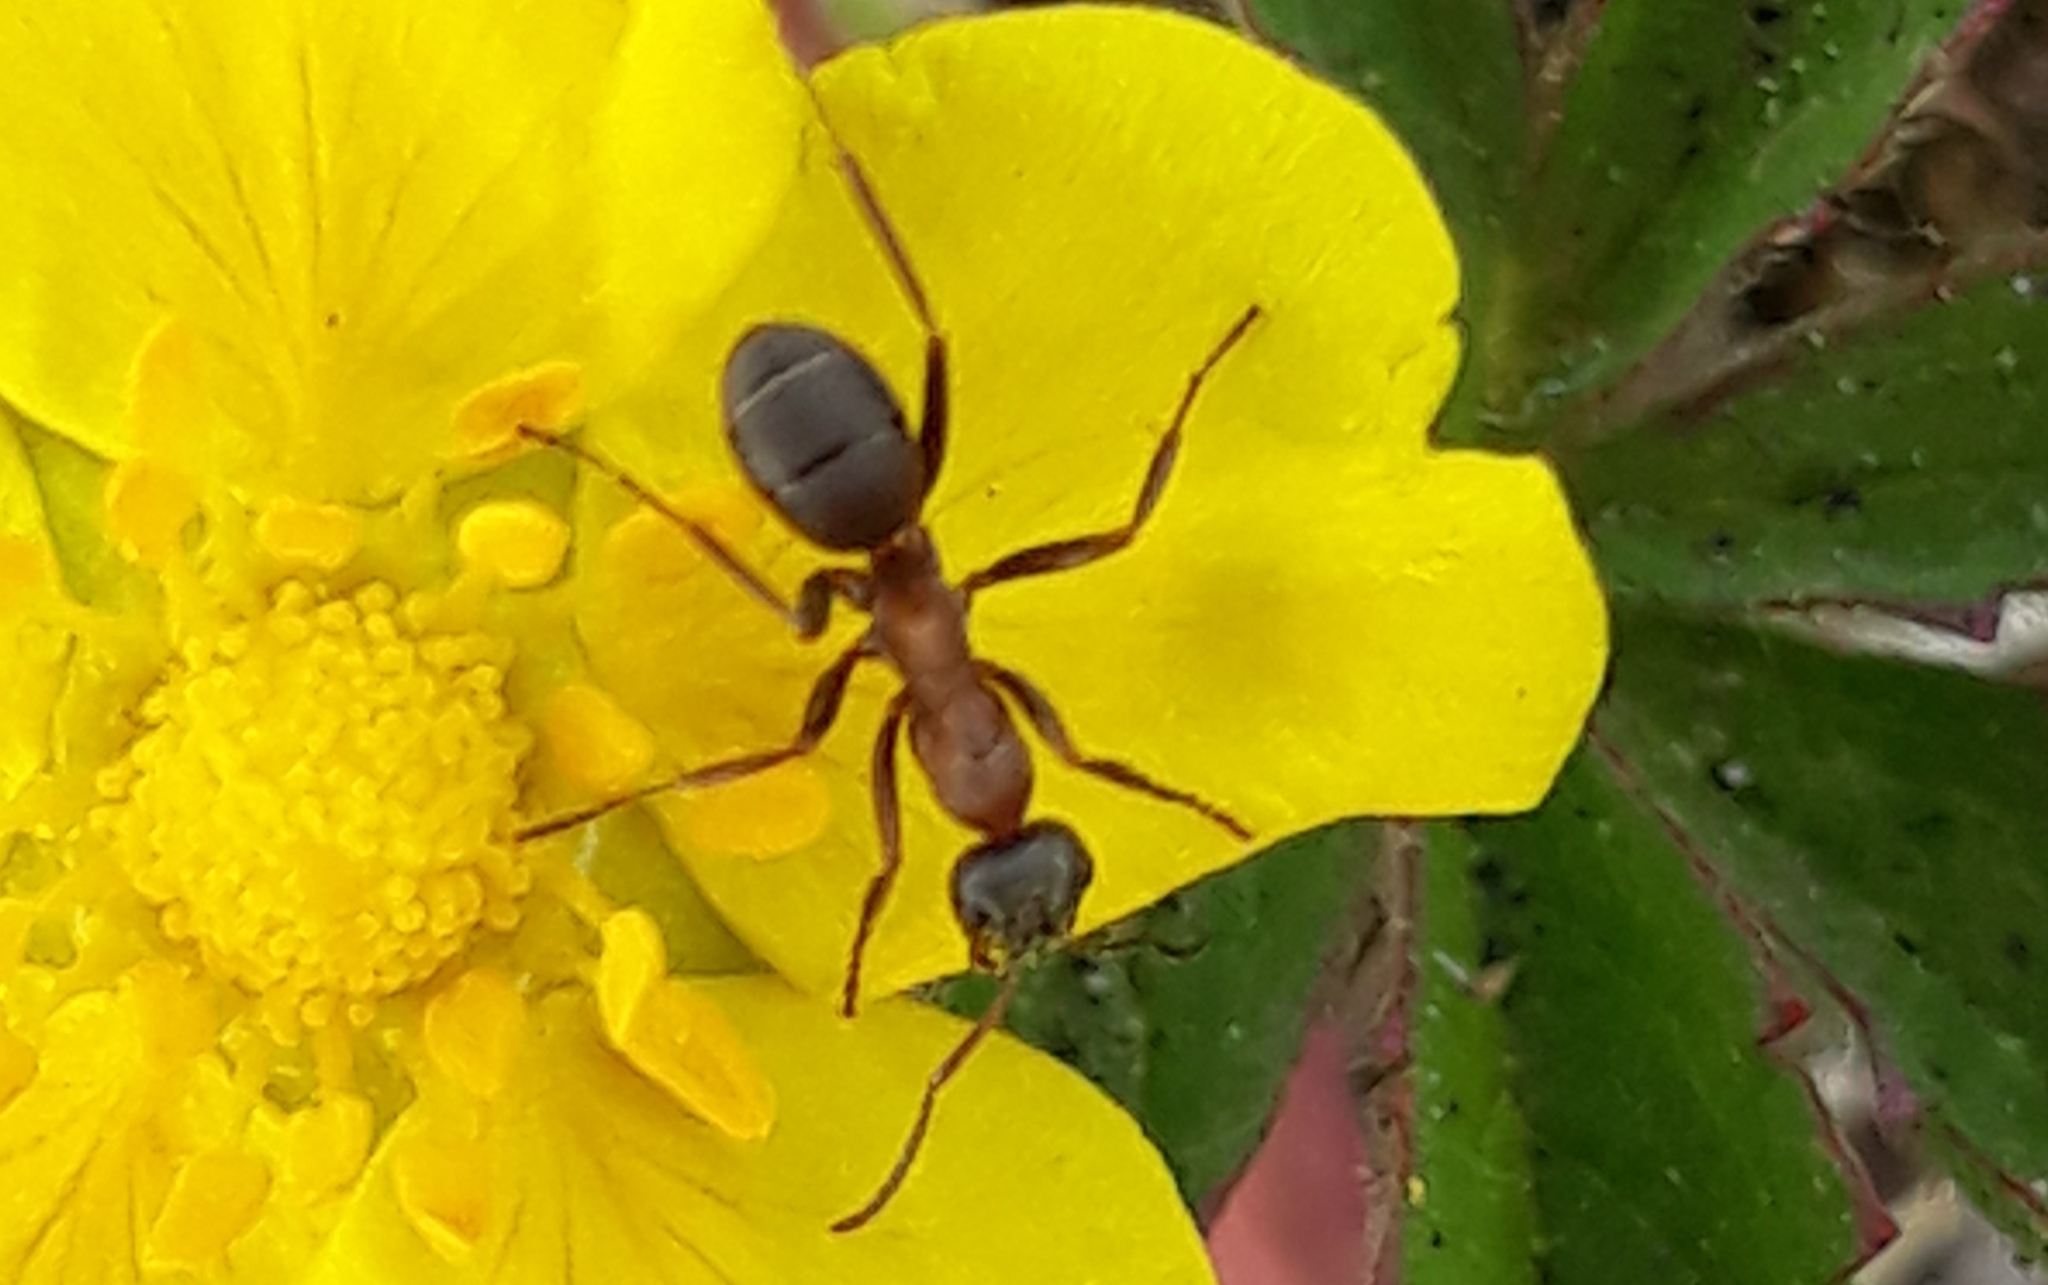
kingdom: Animalia
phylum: Arthropoda
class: Insecta
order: Hymenoptera
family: Formicidae
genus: Formica
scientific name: Formica cunicularia
